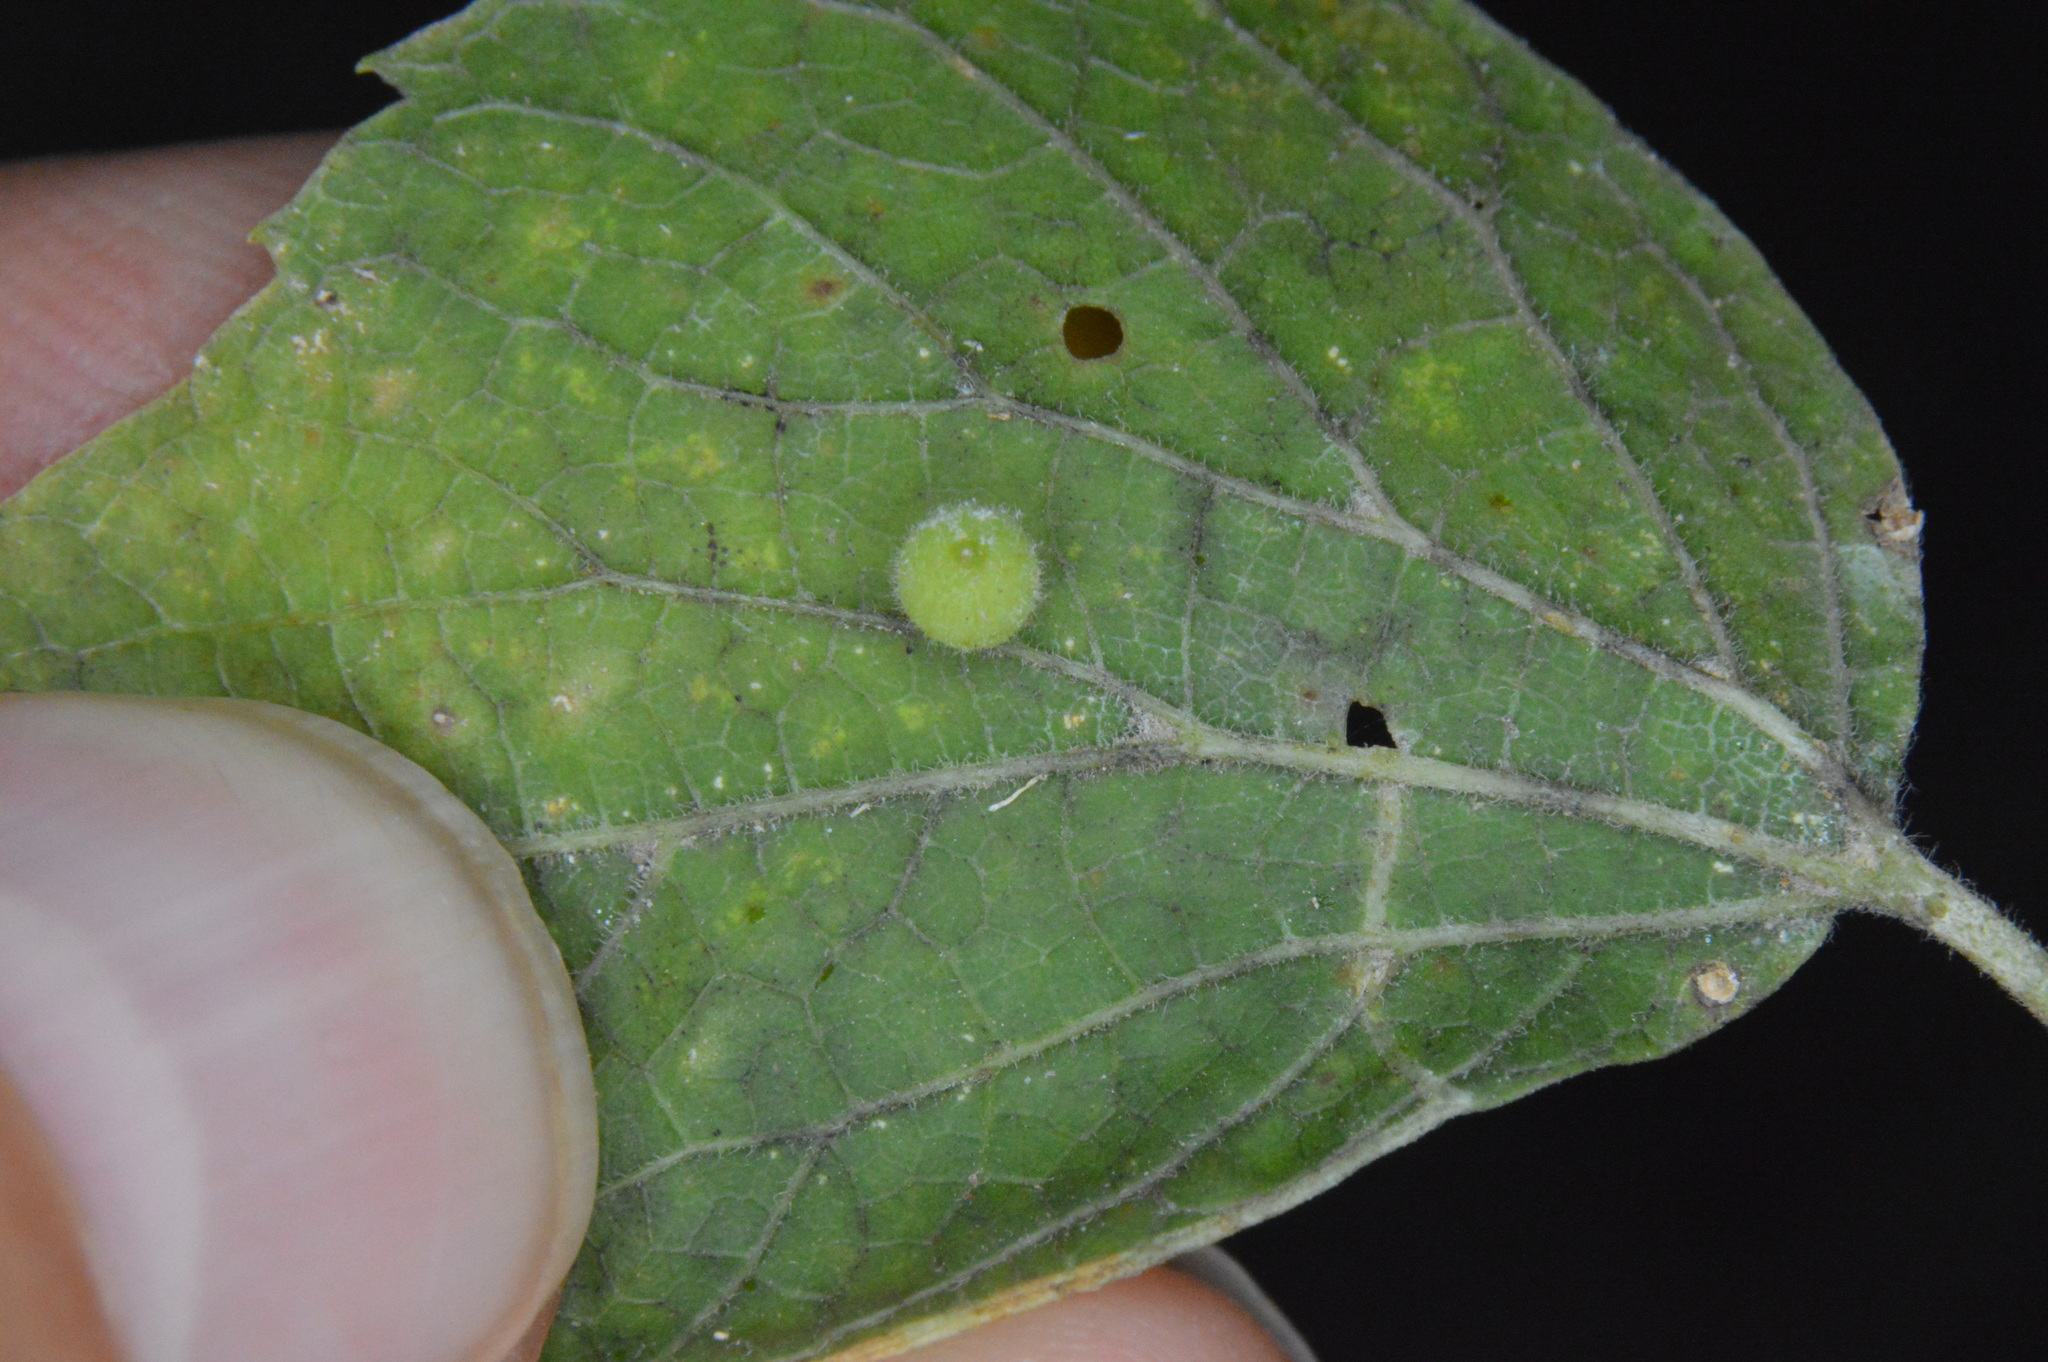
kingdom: Animalia
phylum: Arthropoda
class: Insecta
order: Diptera
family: Cecidomyiidae
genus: Celticecis
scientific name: Celticecis globosa
